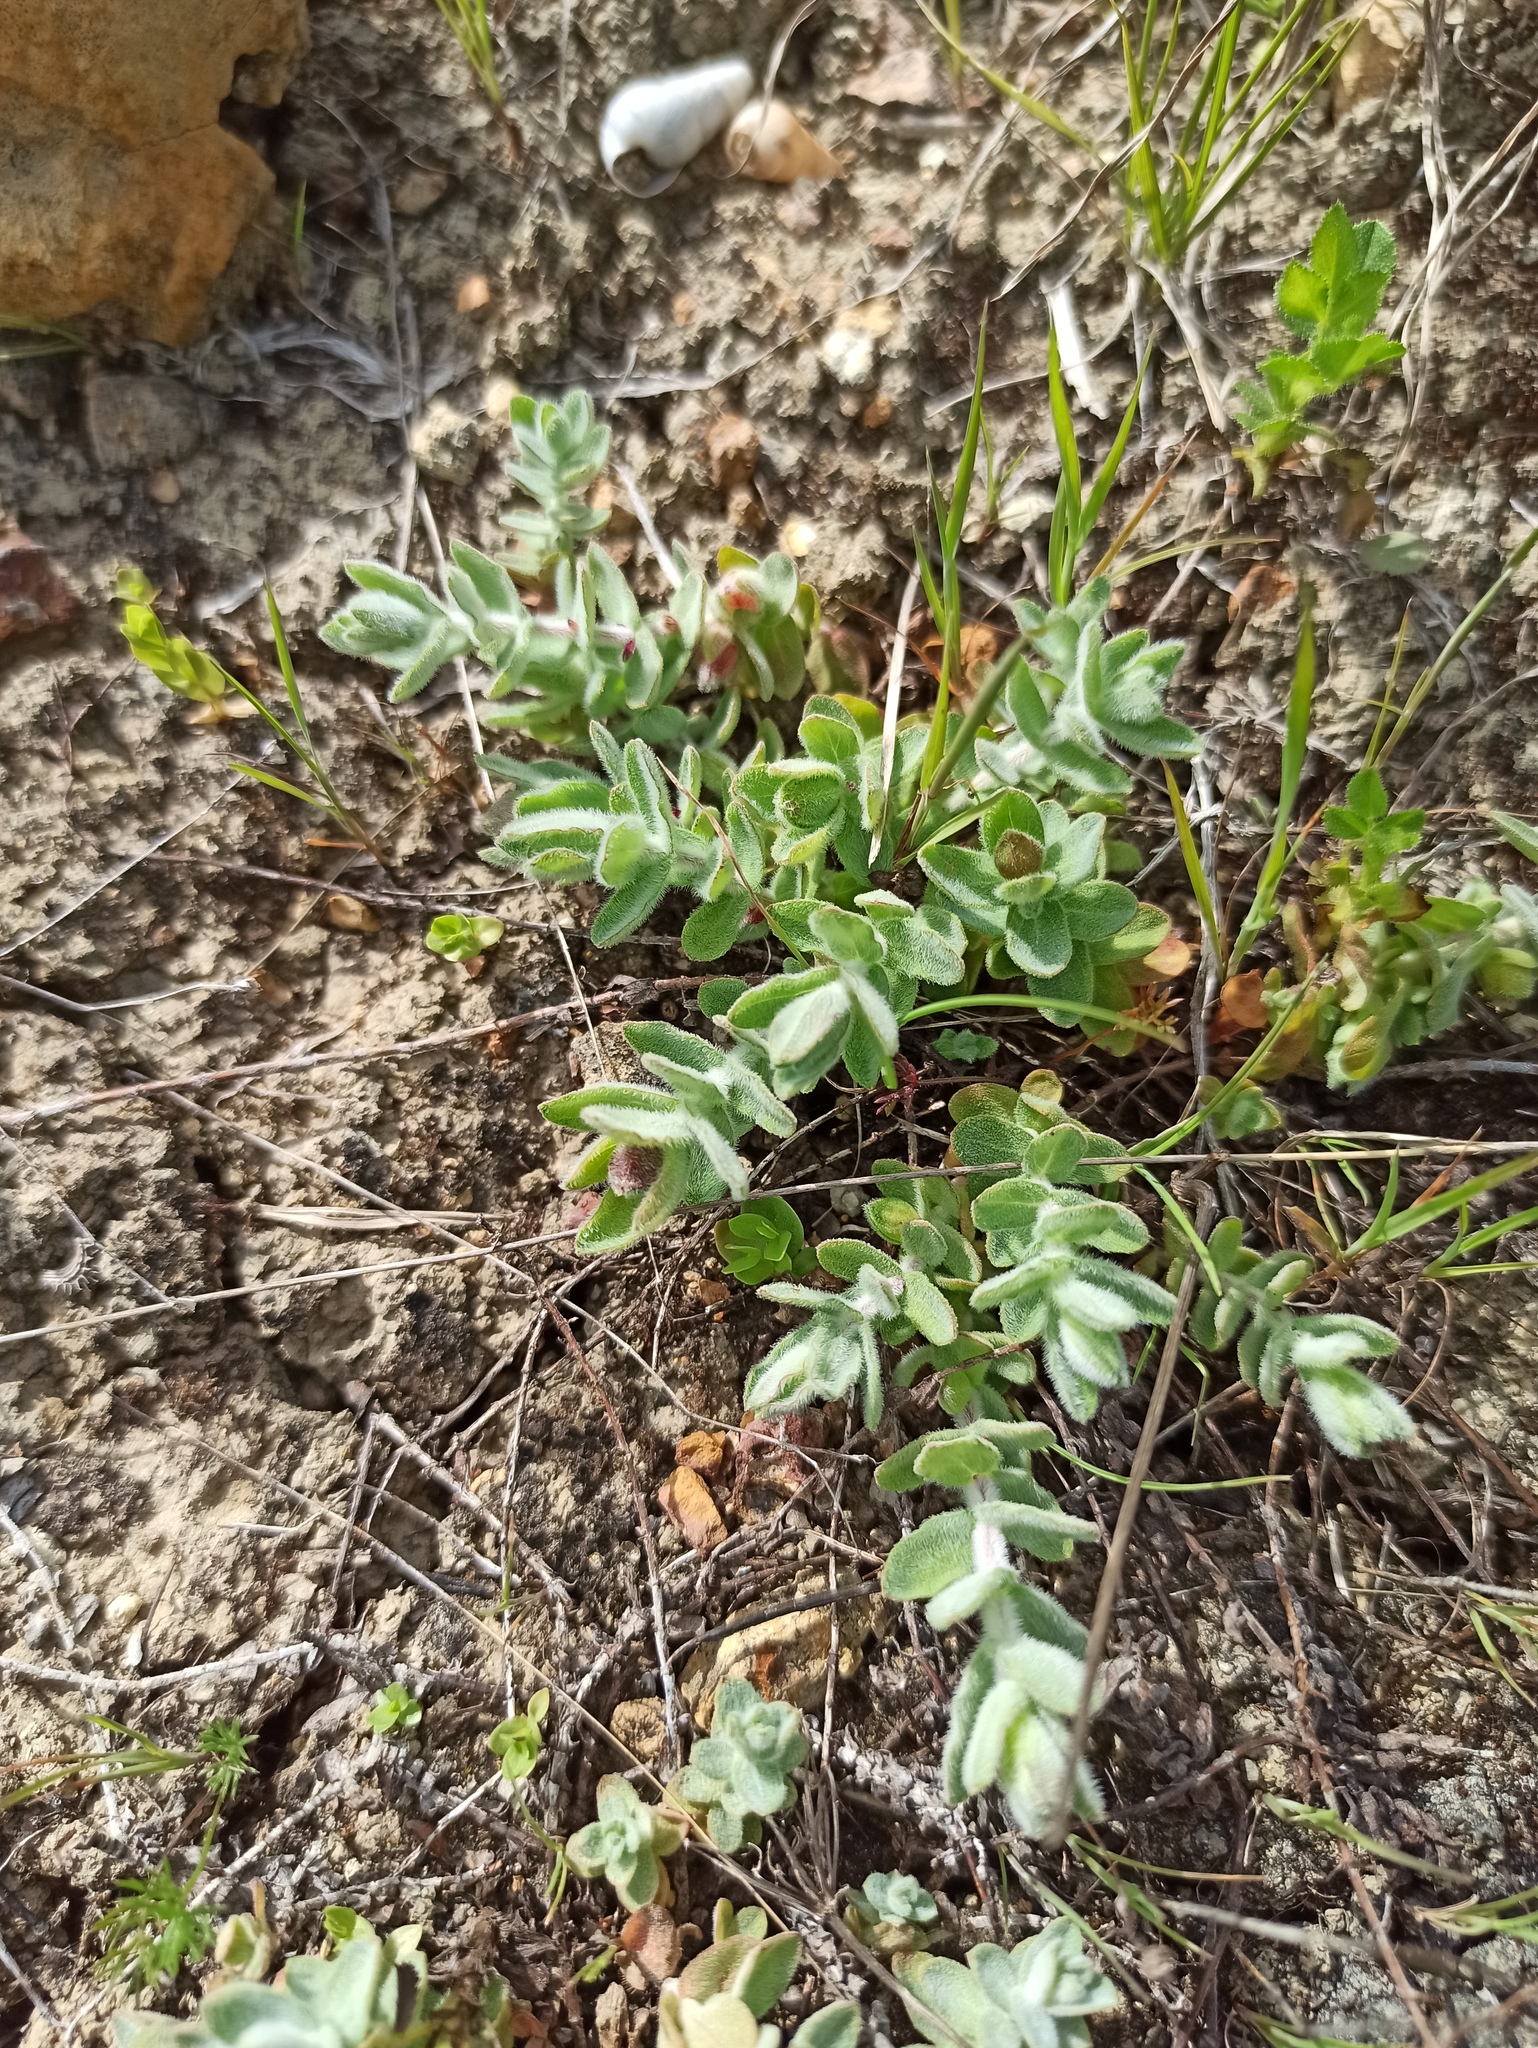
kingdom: Plantae
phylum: Tracheophyta
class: Magnoliopsida
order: Malpighiales
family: Hypericaceae
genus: Hypericum
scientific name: Hypericum tomentosum
